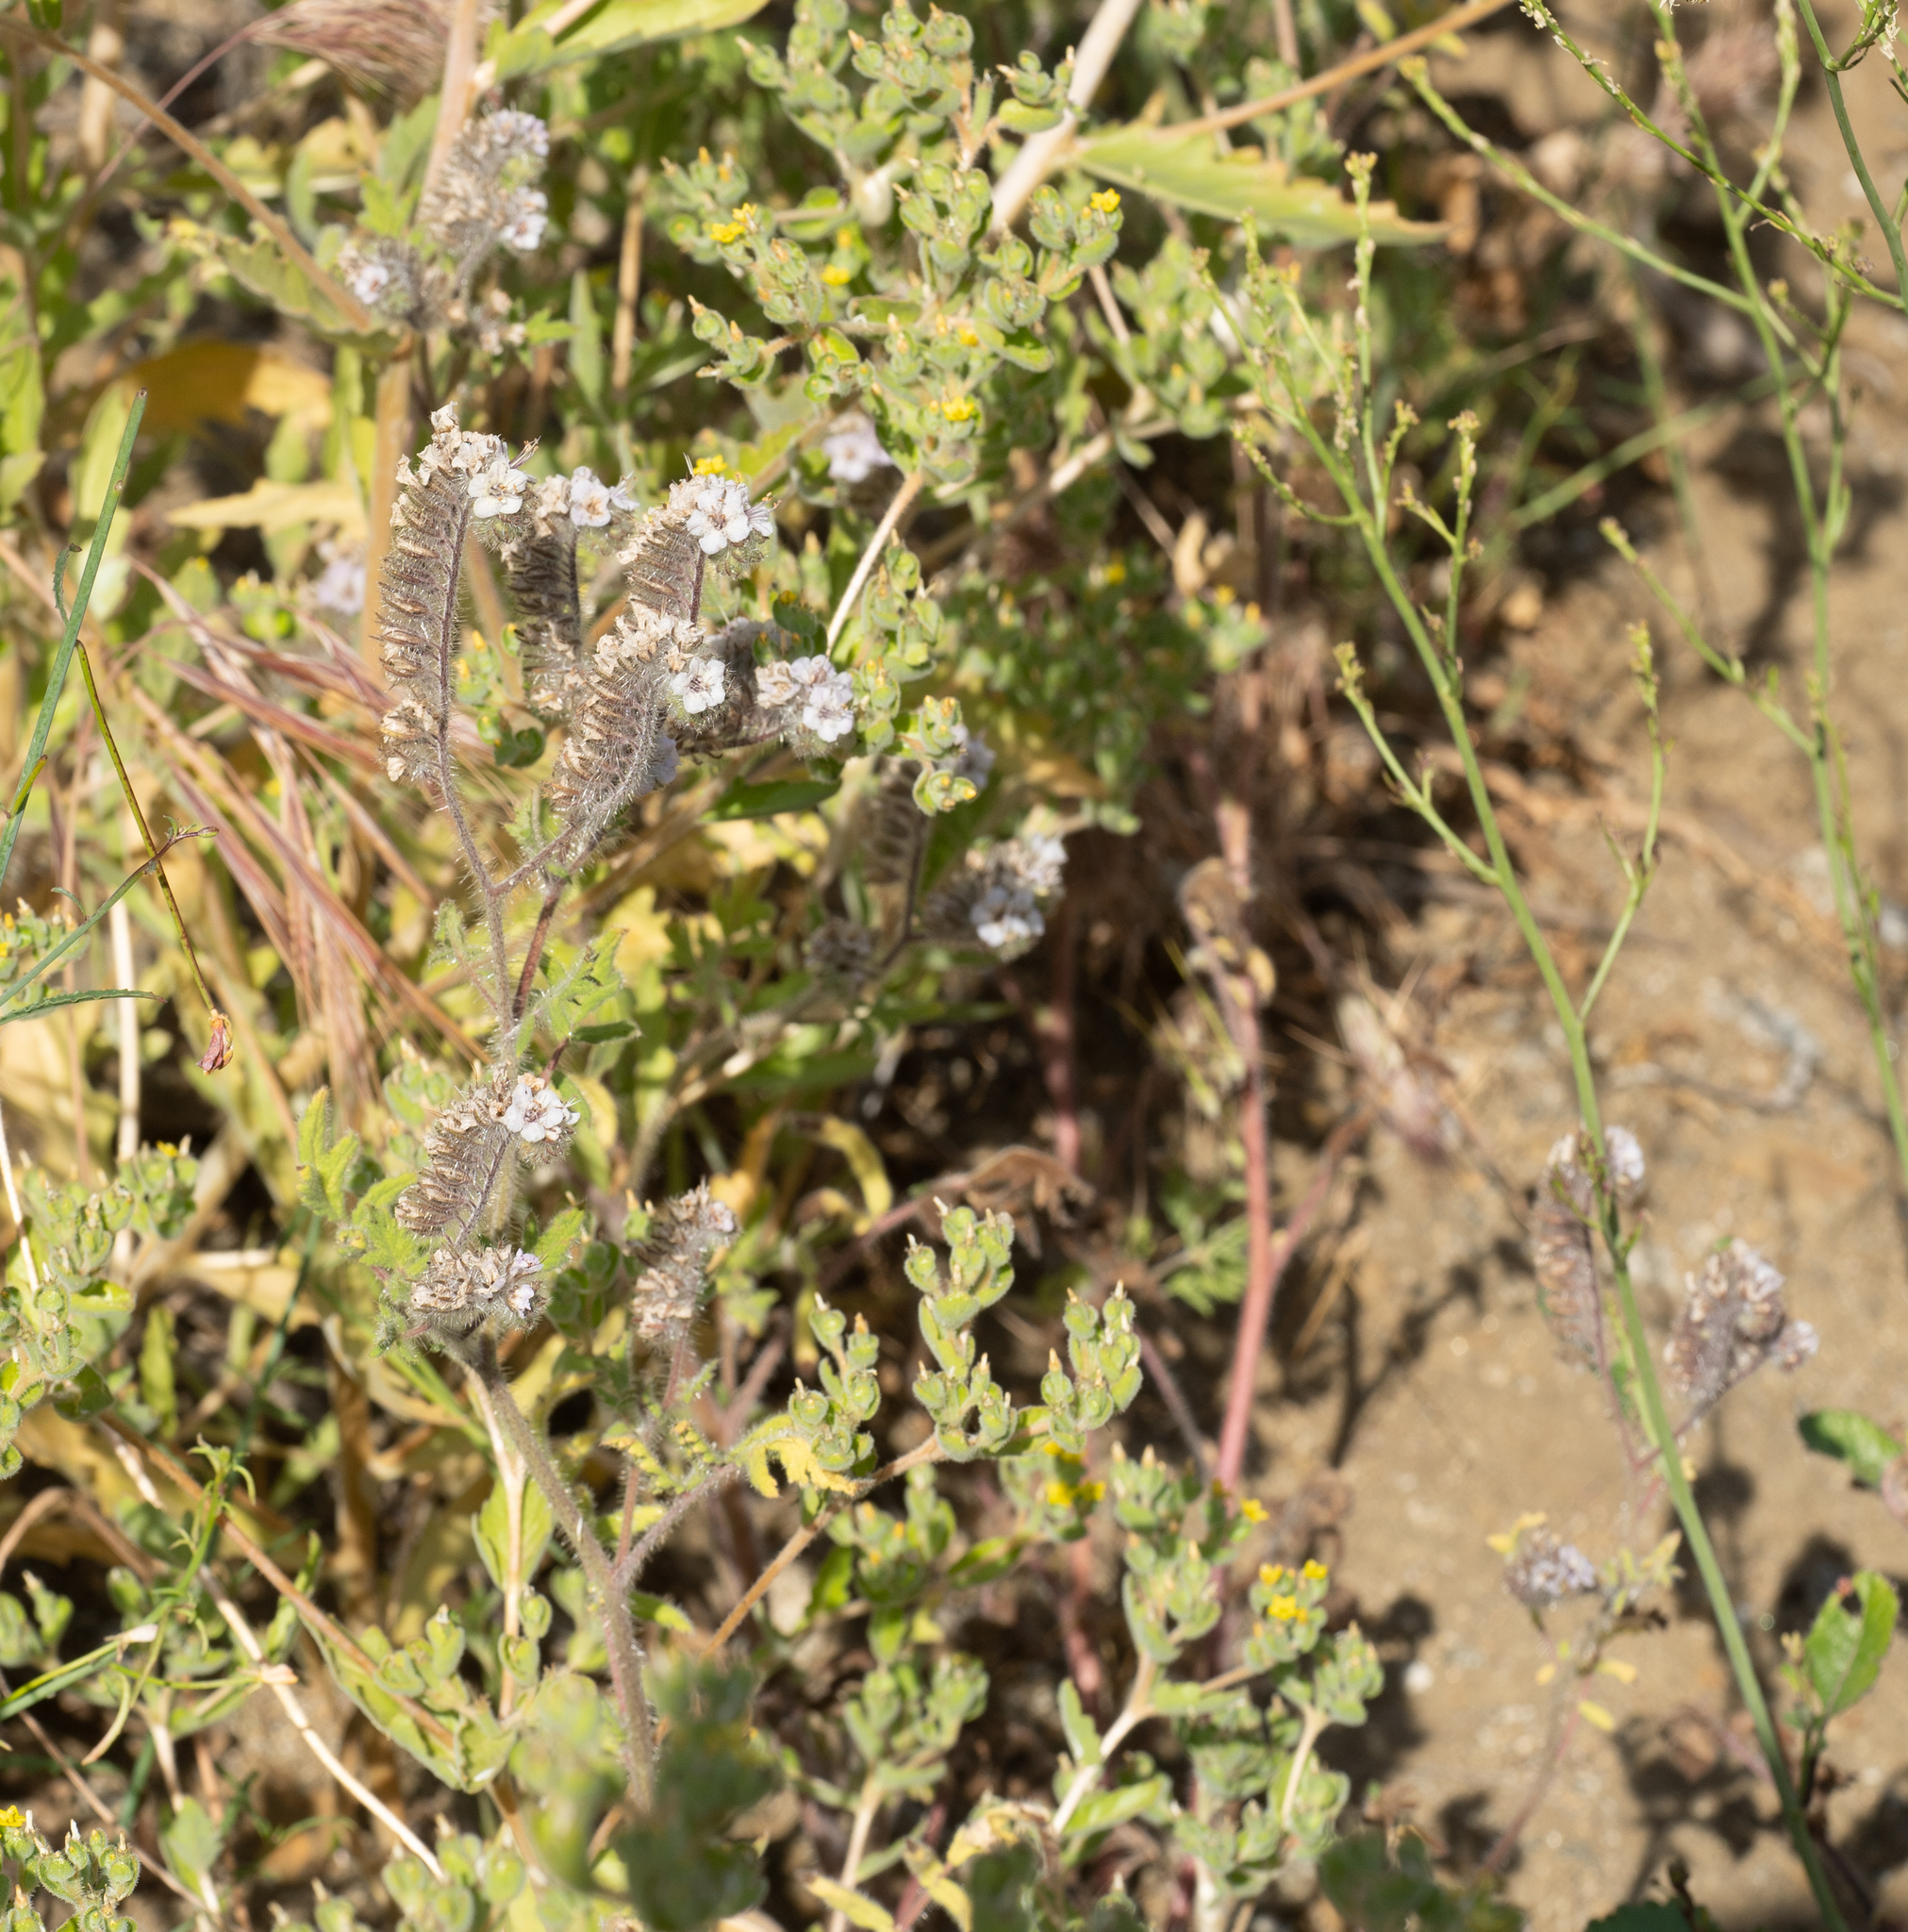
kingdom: Plantae
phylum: Tracheophyta
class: Magnoliopsida
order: Boraginales
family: Hydrophyllaceae
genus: Phacelia
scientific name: Phacelia cicutaria
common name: Caterpillar phacelia
